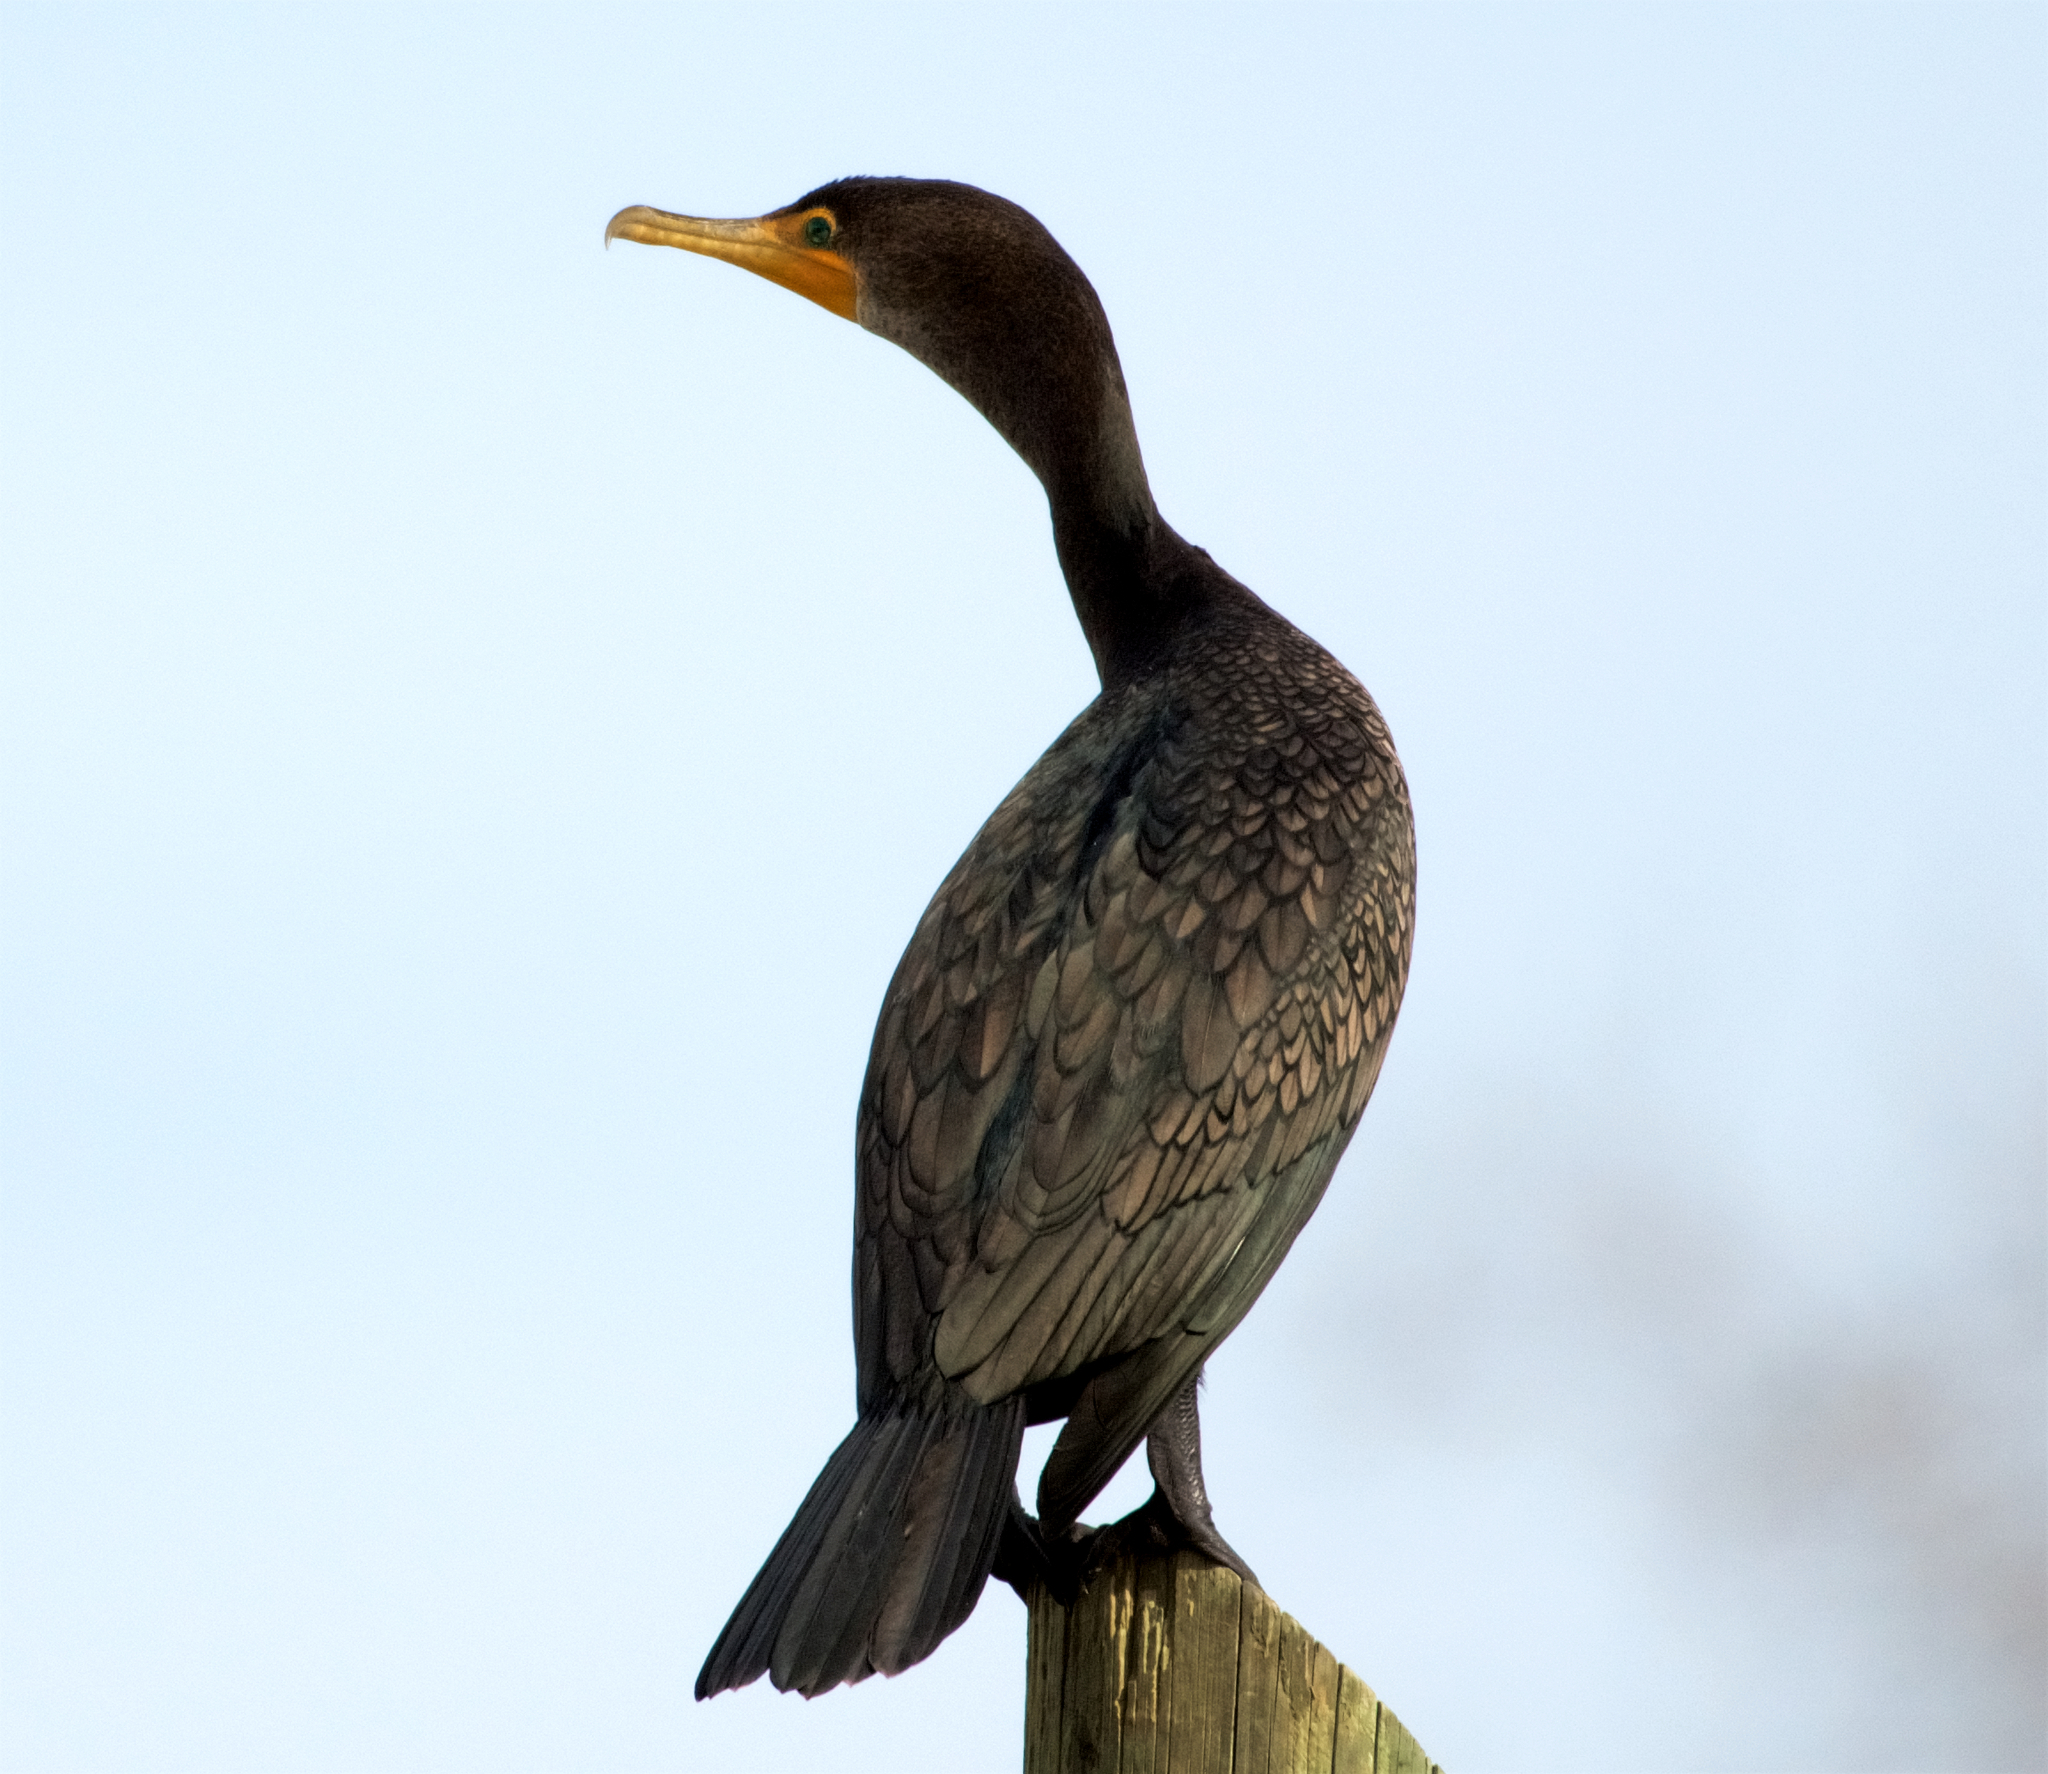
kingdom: Animalia
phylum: Chordata
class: Aves
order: Suliformes
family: Phalacrocoracidae
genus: Phalacrocorax
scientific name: Phalacrocorax auritus
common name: Double-crested cormorant
